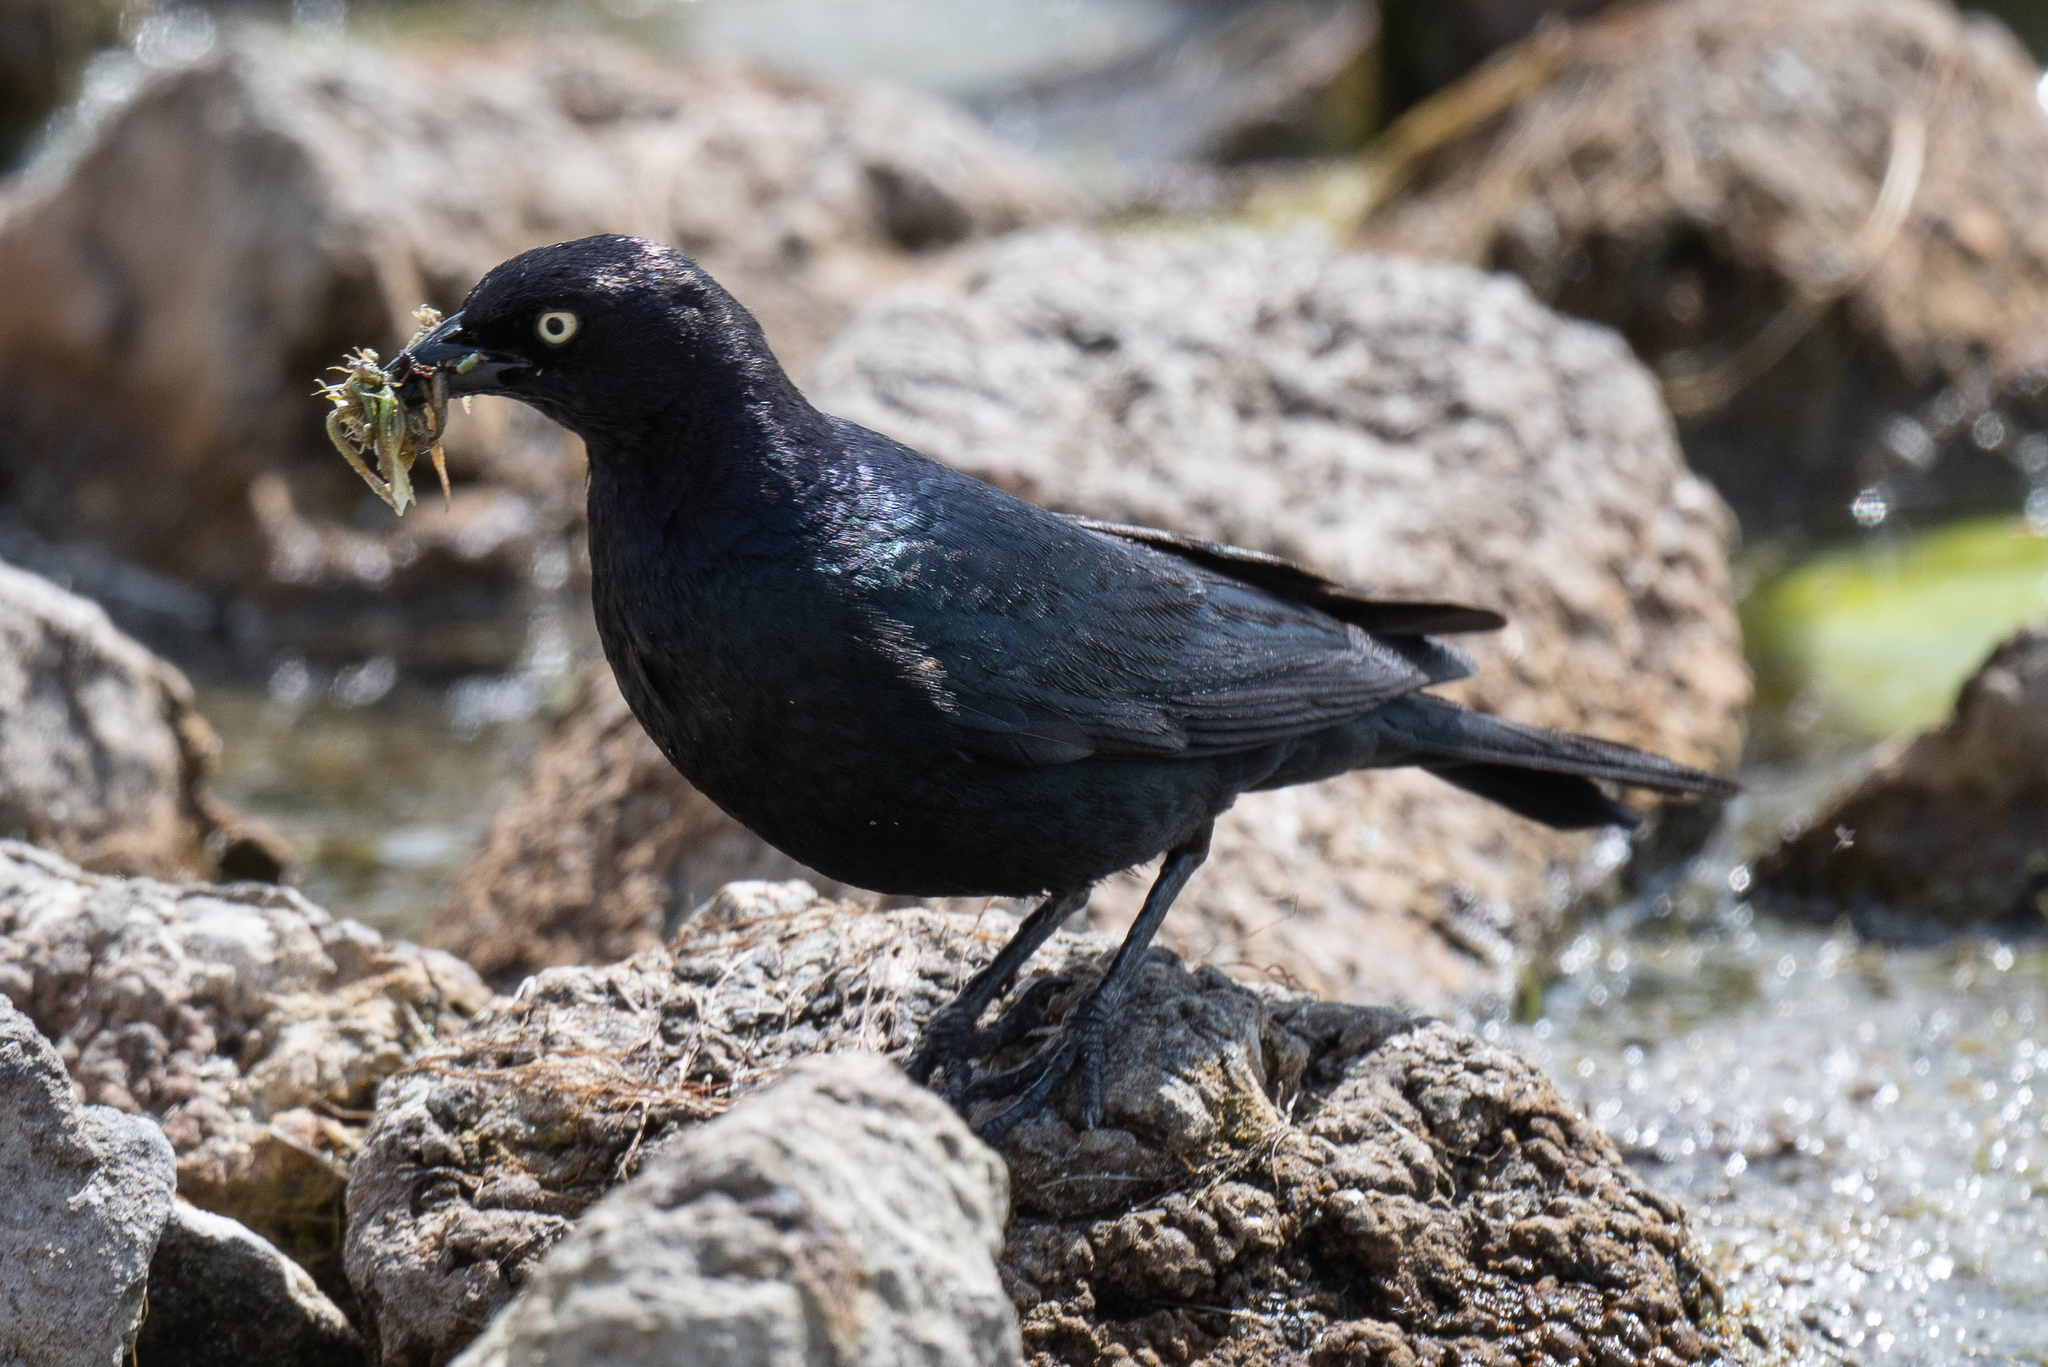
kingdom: Animalia
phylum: Chordata
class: Aves
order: Passeriformes
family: Icteridae
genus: Euphagus
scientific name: Euphagus cyanocephalus
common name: Brewer's blackbird
